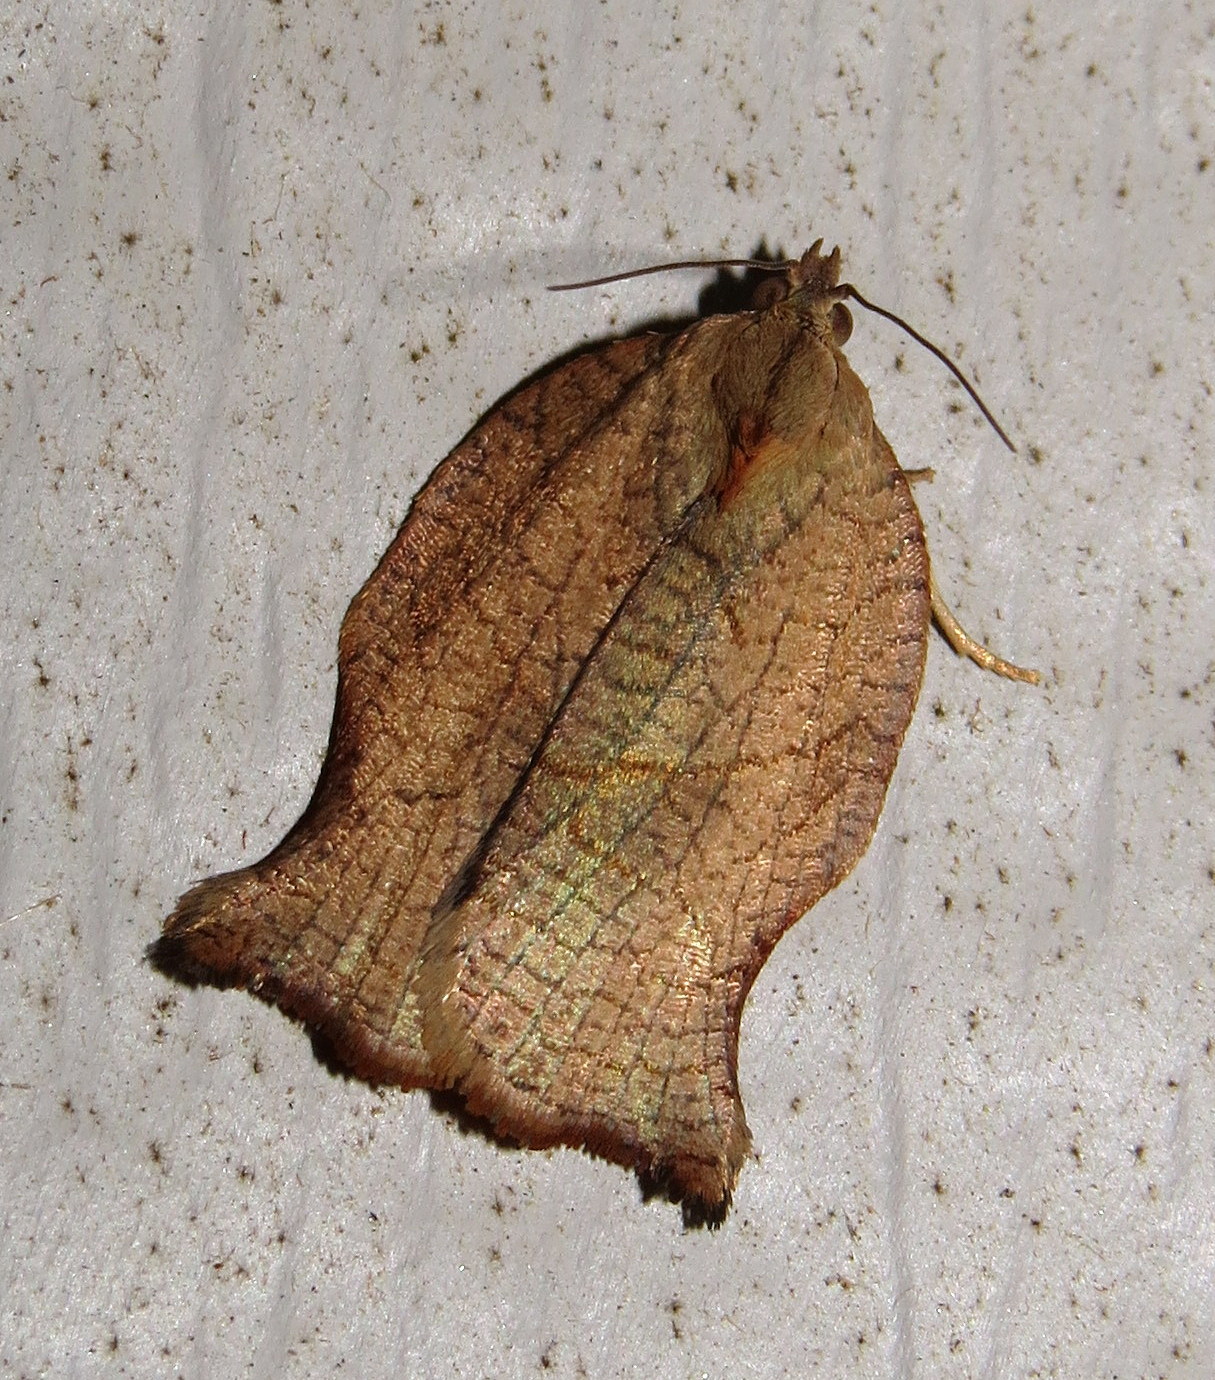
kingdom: Animalia
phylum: Arthropoda
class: Insecta
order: Lepidoptera
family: Tortricidae
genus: Archips
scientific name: Archips purpurana
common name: Omnivorous leafroller
